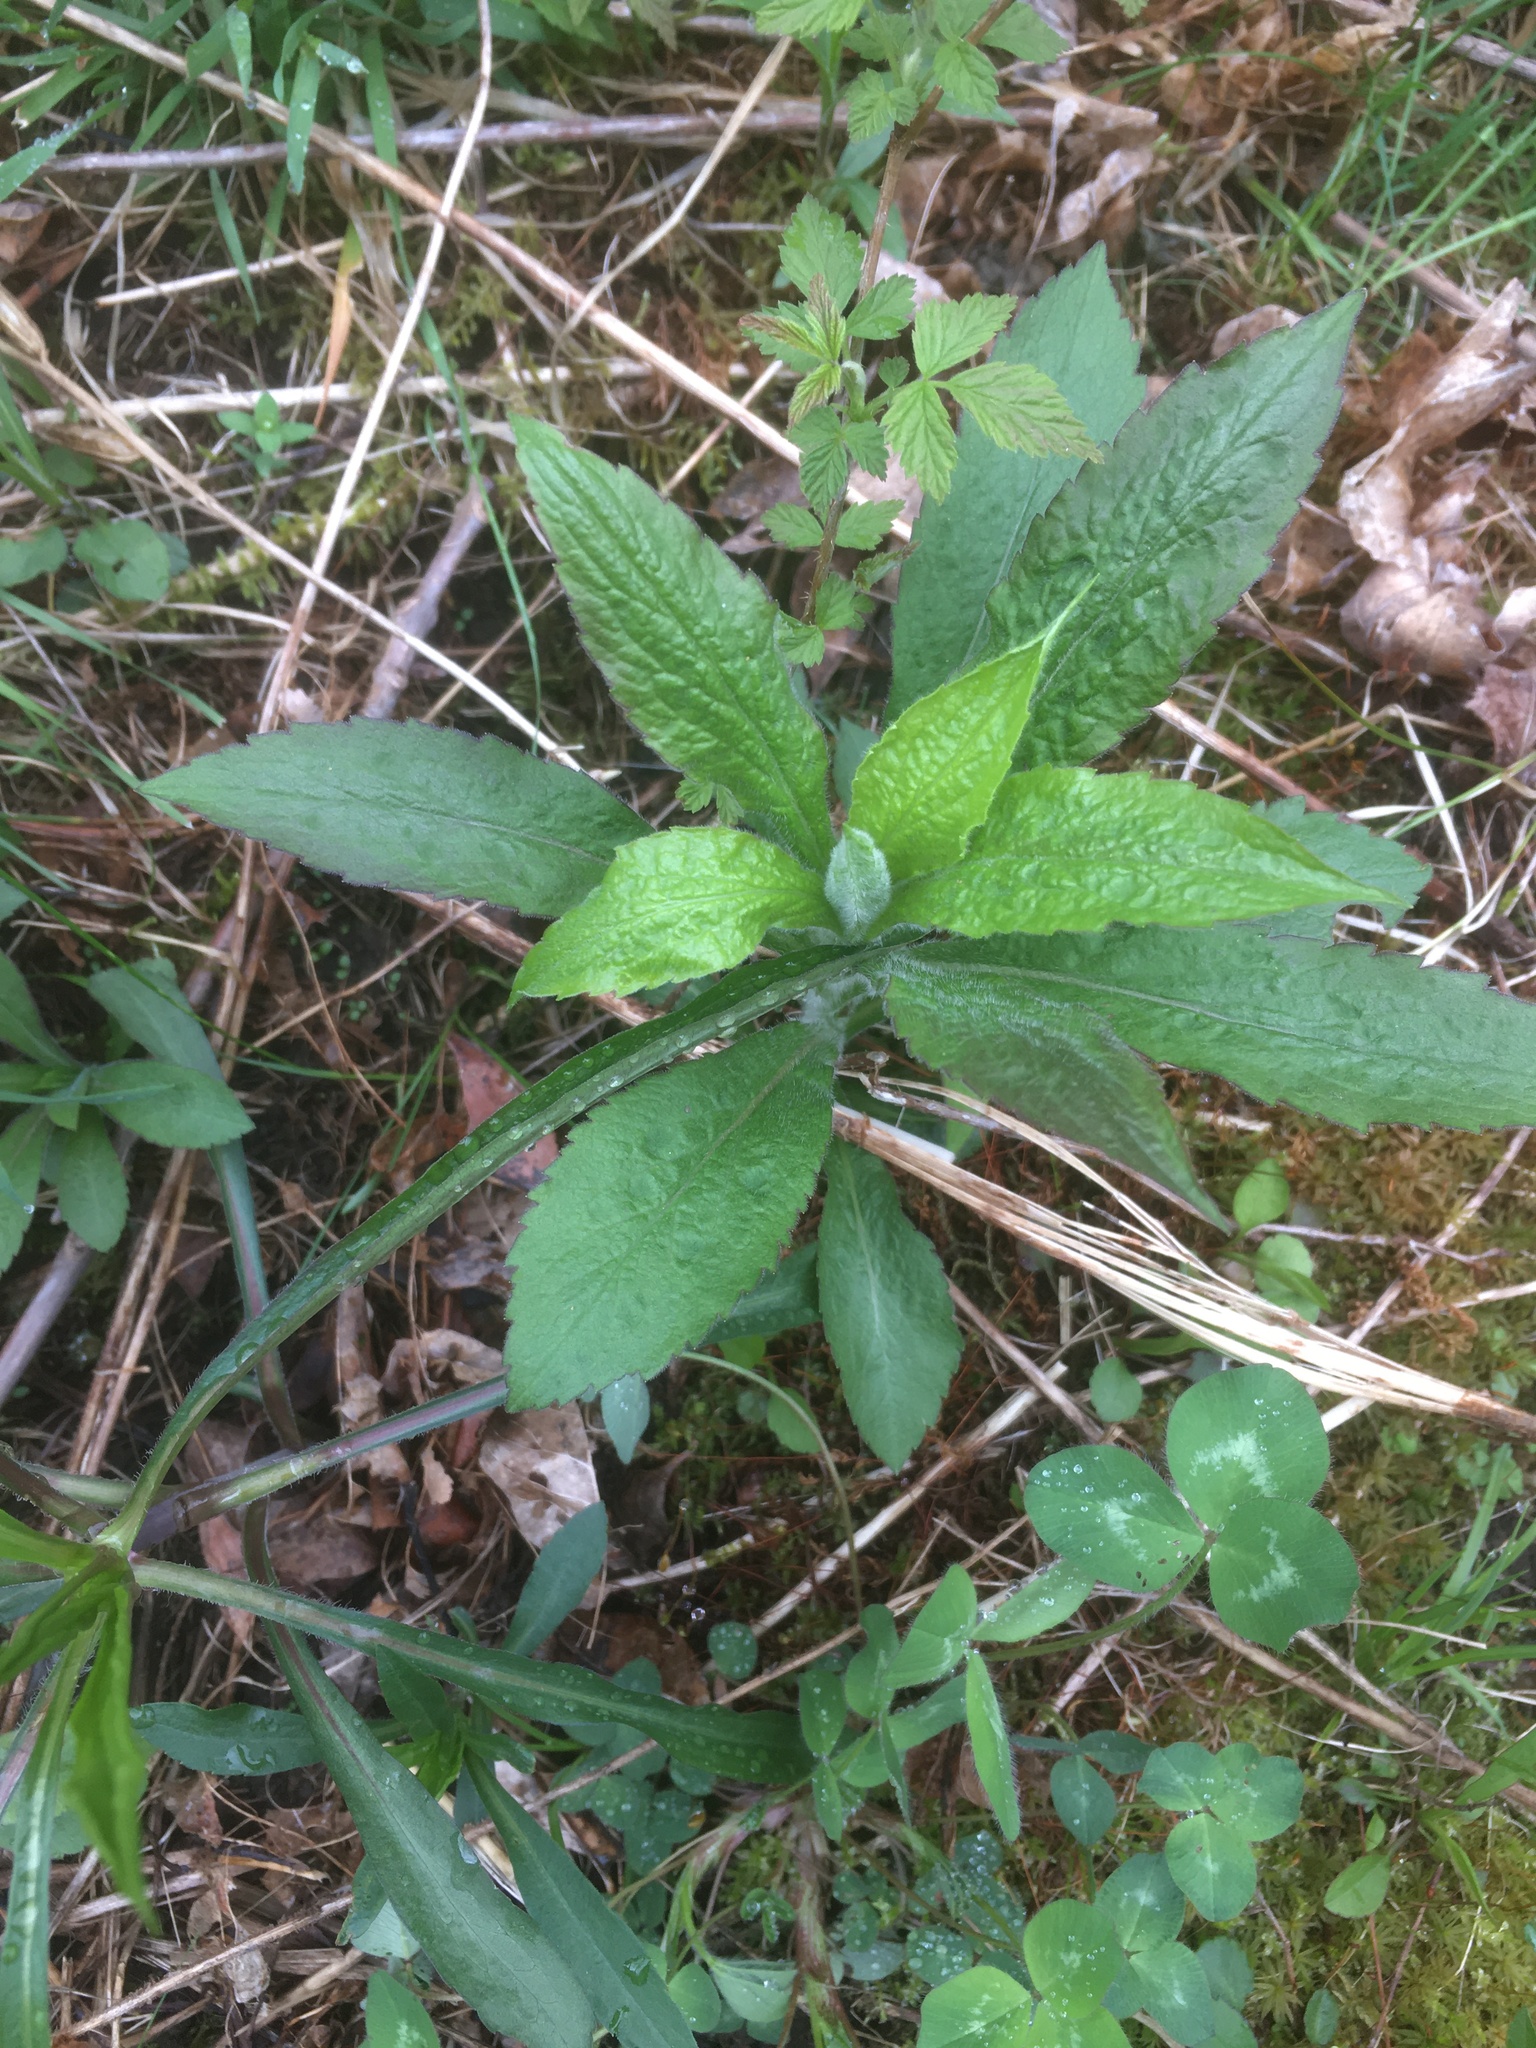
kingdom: Plantae
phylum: Tracheophyta
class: Magnoliopsida
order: Asterales
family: Asteraceae
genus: Solidago
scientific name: Solidago rugosa
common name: Rough-stemmed goldenrod
